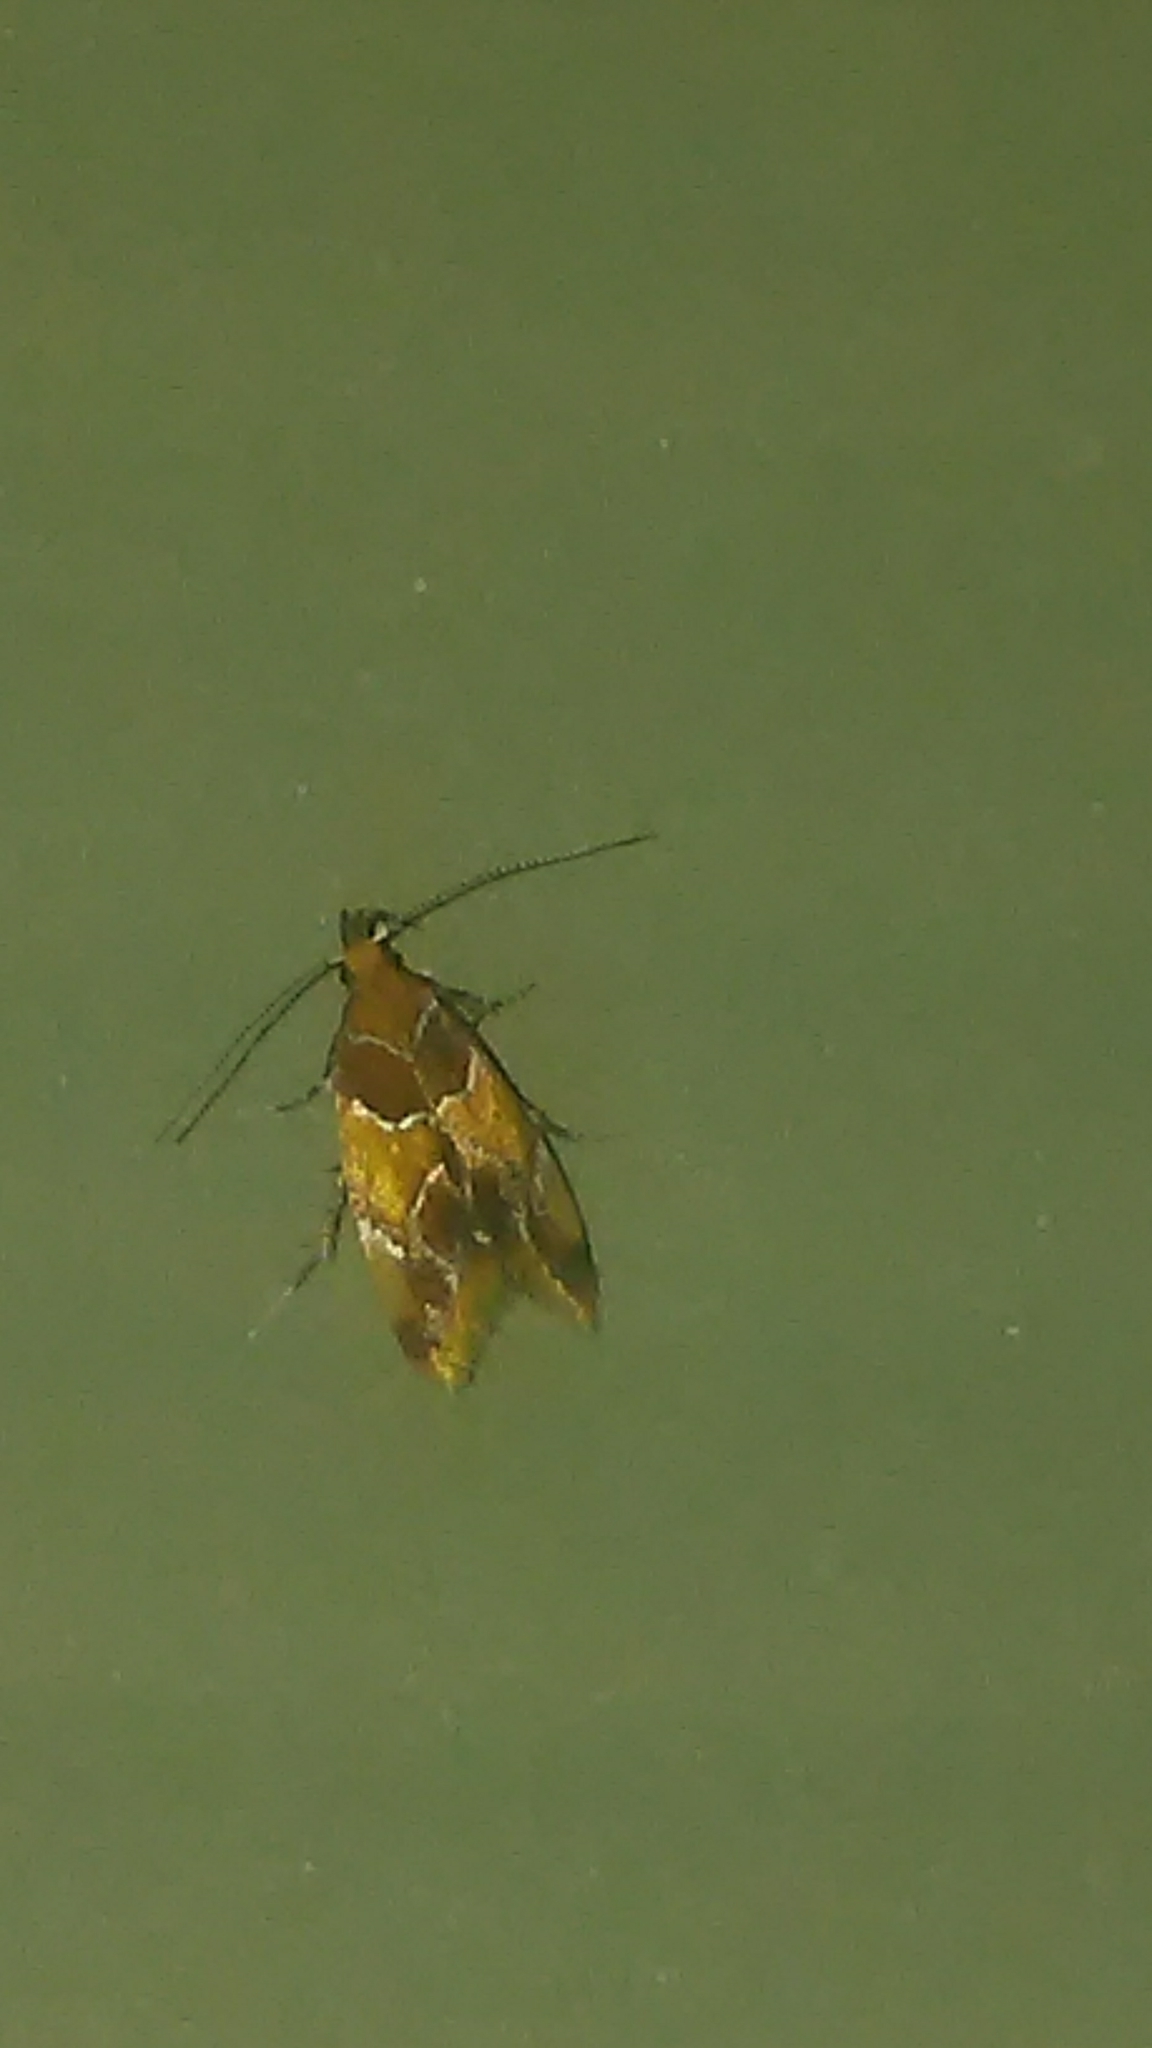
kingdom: Animalia
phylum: Arthropoda
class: Insecta
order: Lepidoptera
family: Oecophoridae
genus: Callima
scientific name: Callima argenticinctella
